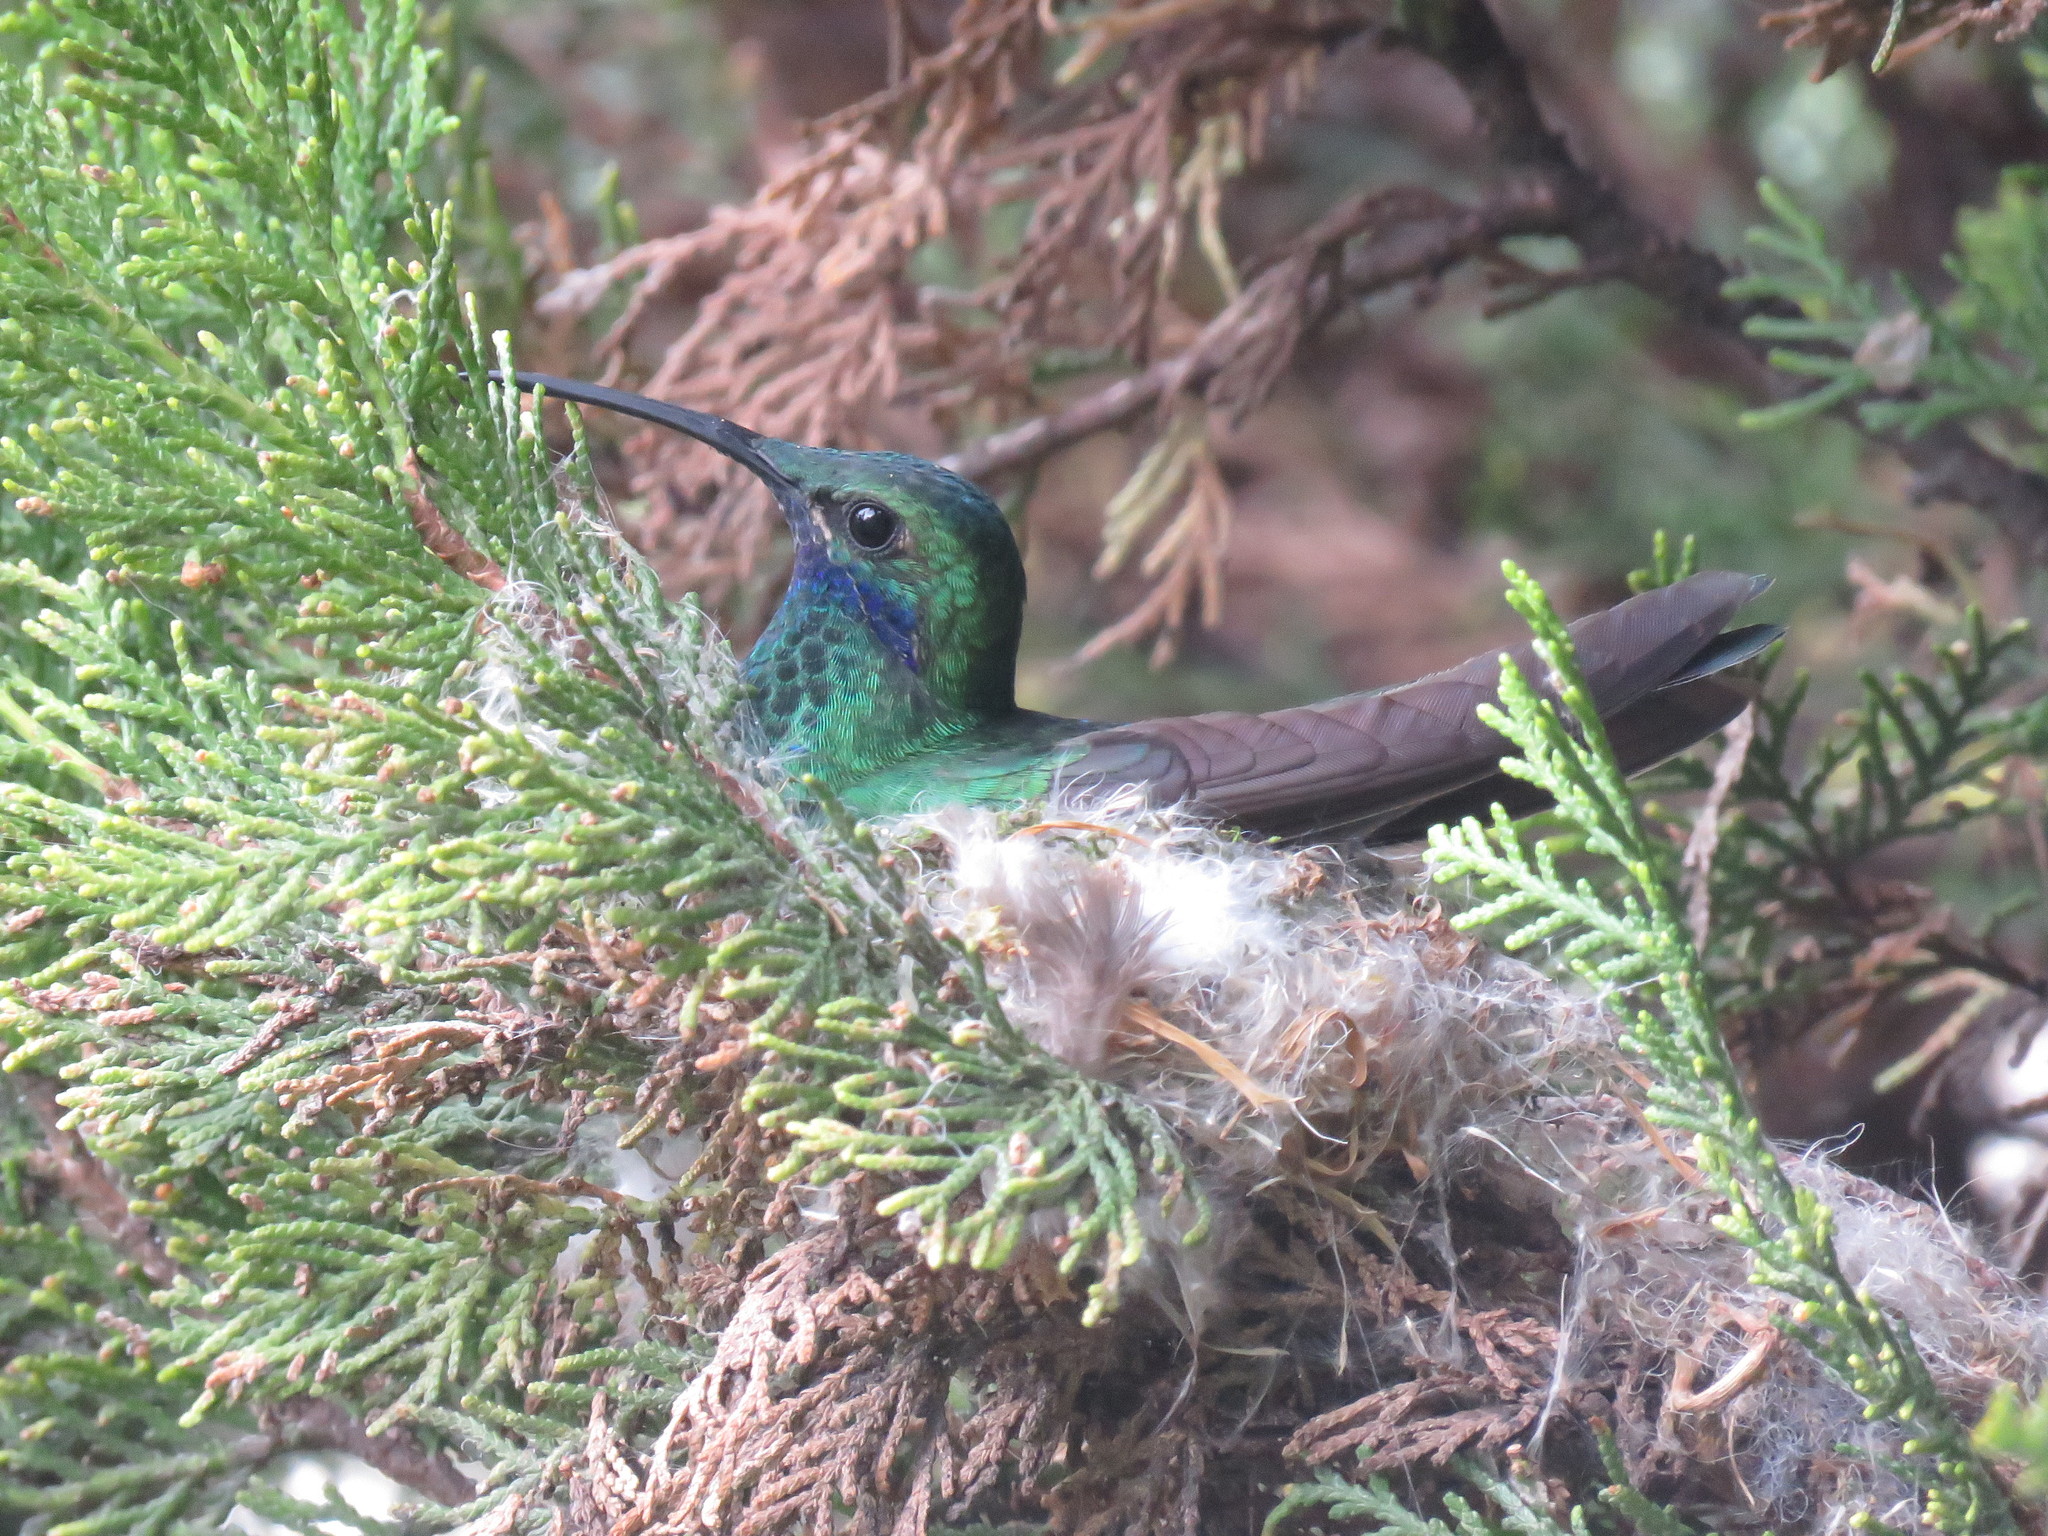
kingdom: Animalia
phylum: Chordata
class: Aves
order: Apodiformes
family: Trochilidae
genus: Colibri
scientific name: Colibri coruscans
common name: Sparkling violetear
